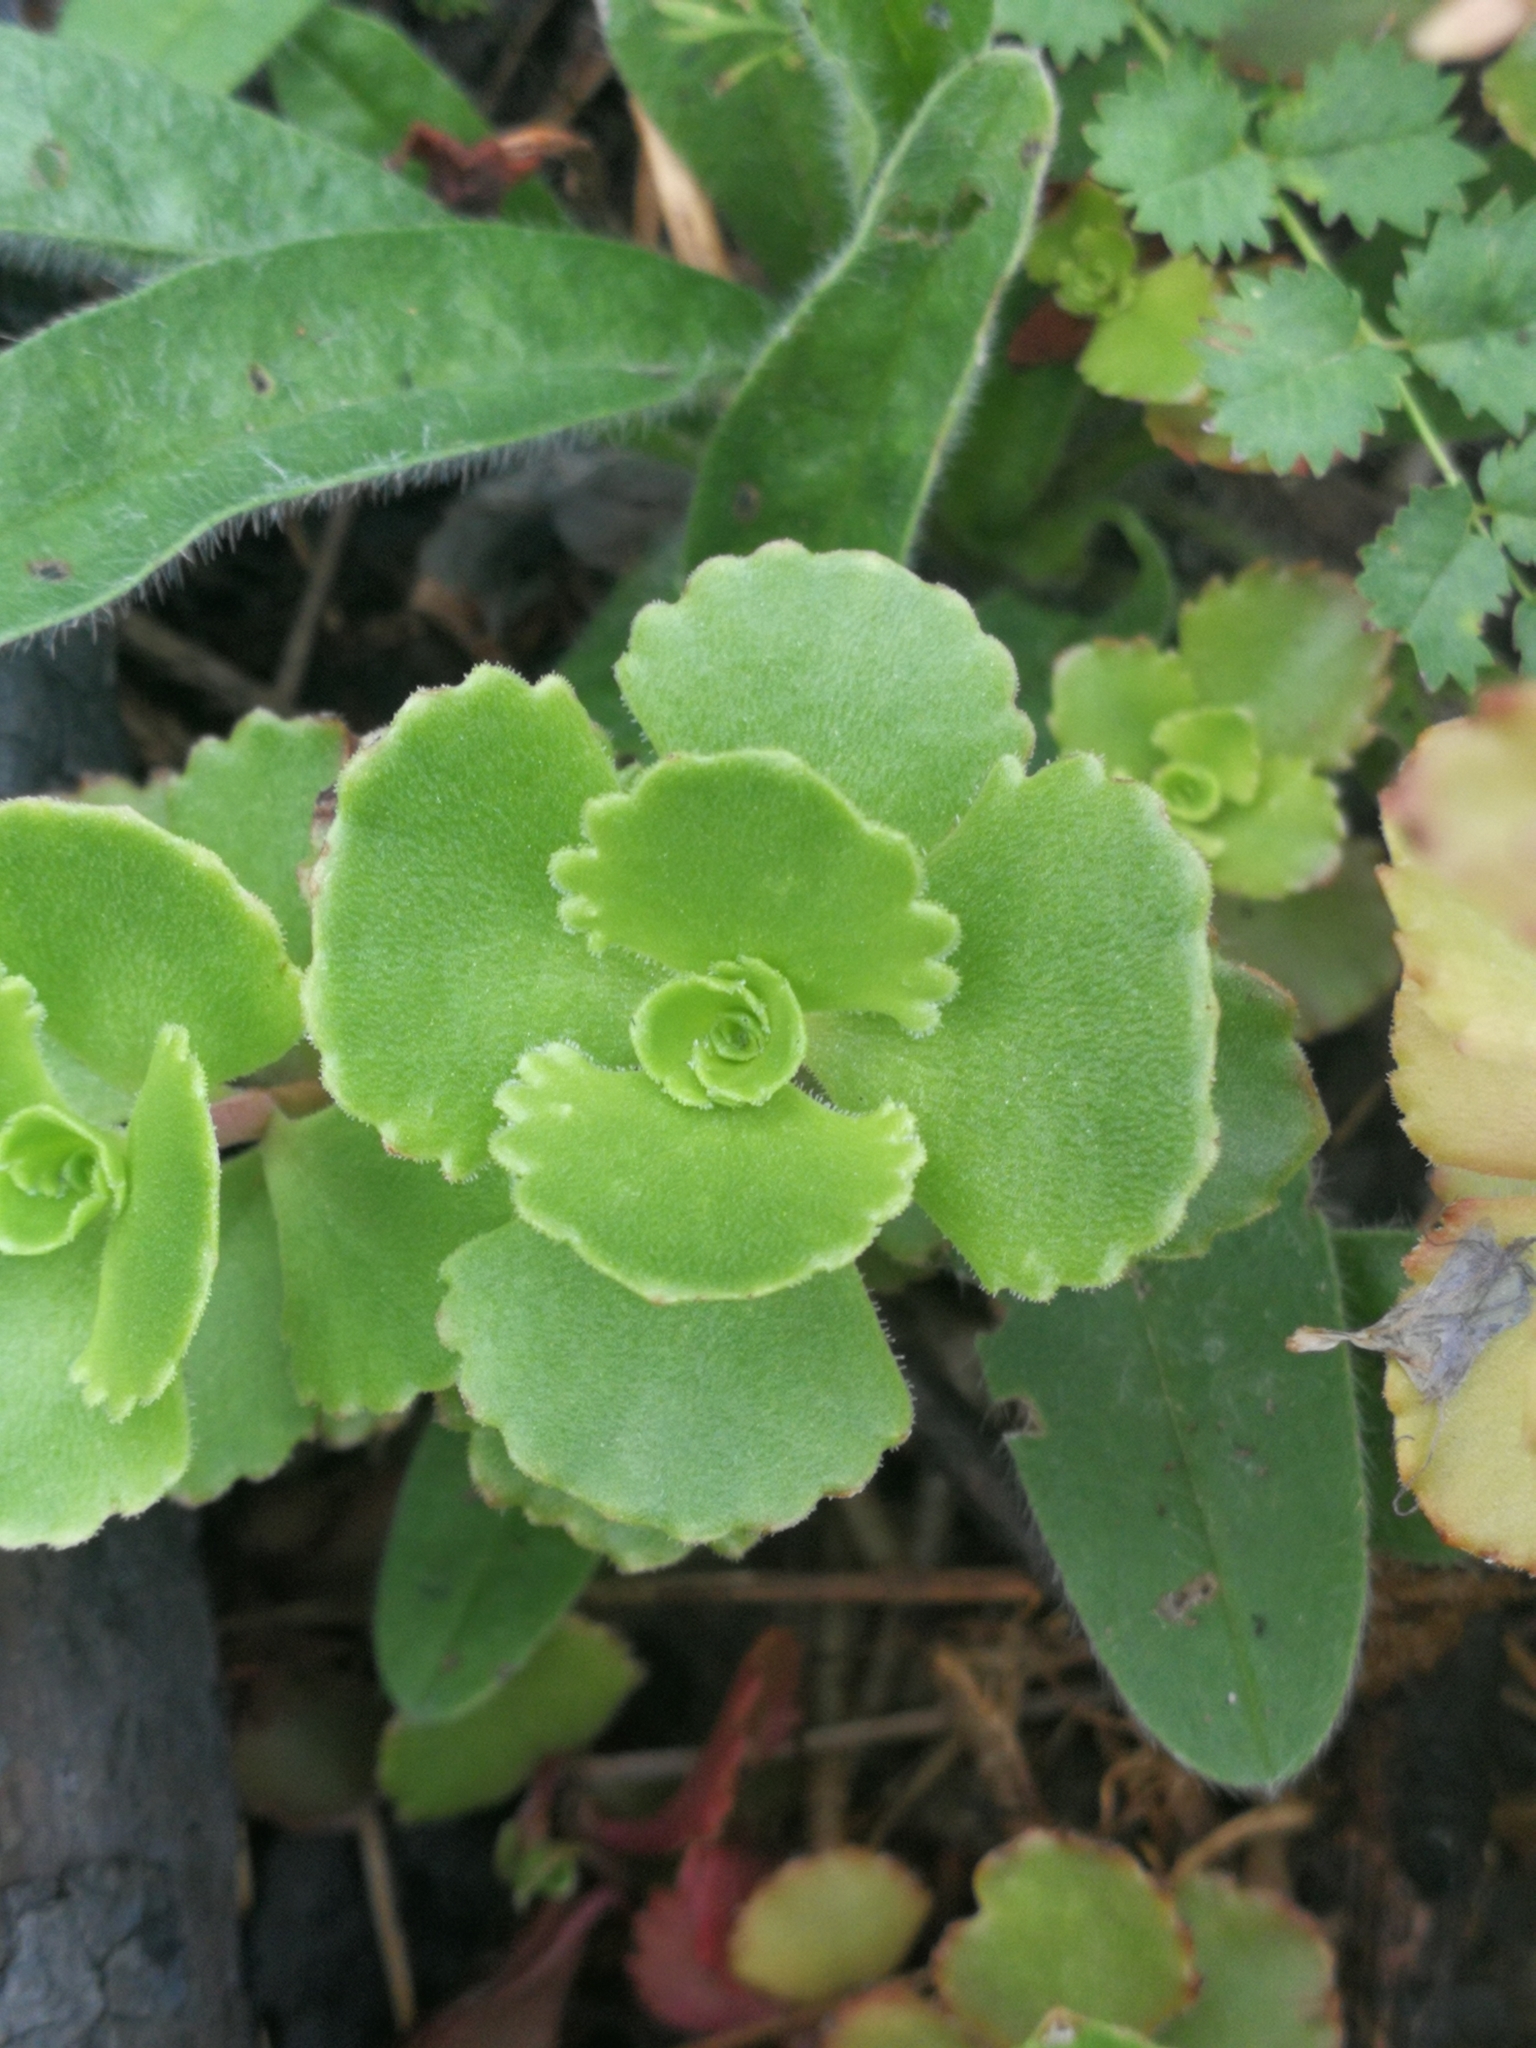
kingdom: Plantae
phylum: Tracheophyta
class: Magnoliopsida
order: Saxifragales
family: Crassulaceae
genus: Phedimus
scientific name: Phedimus spurius
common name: Caucasian stonecrop
